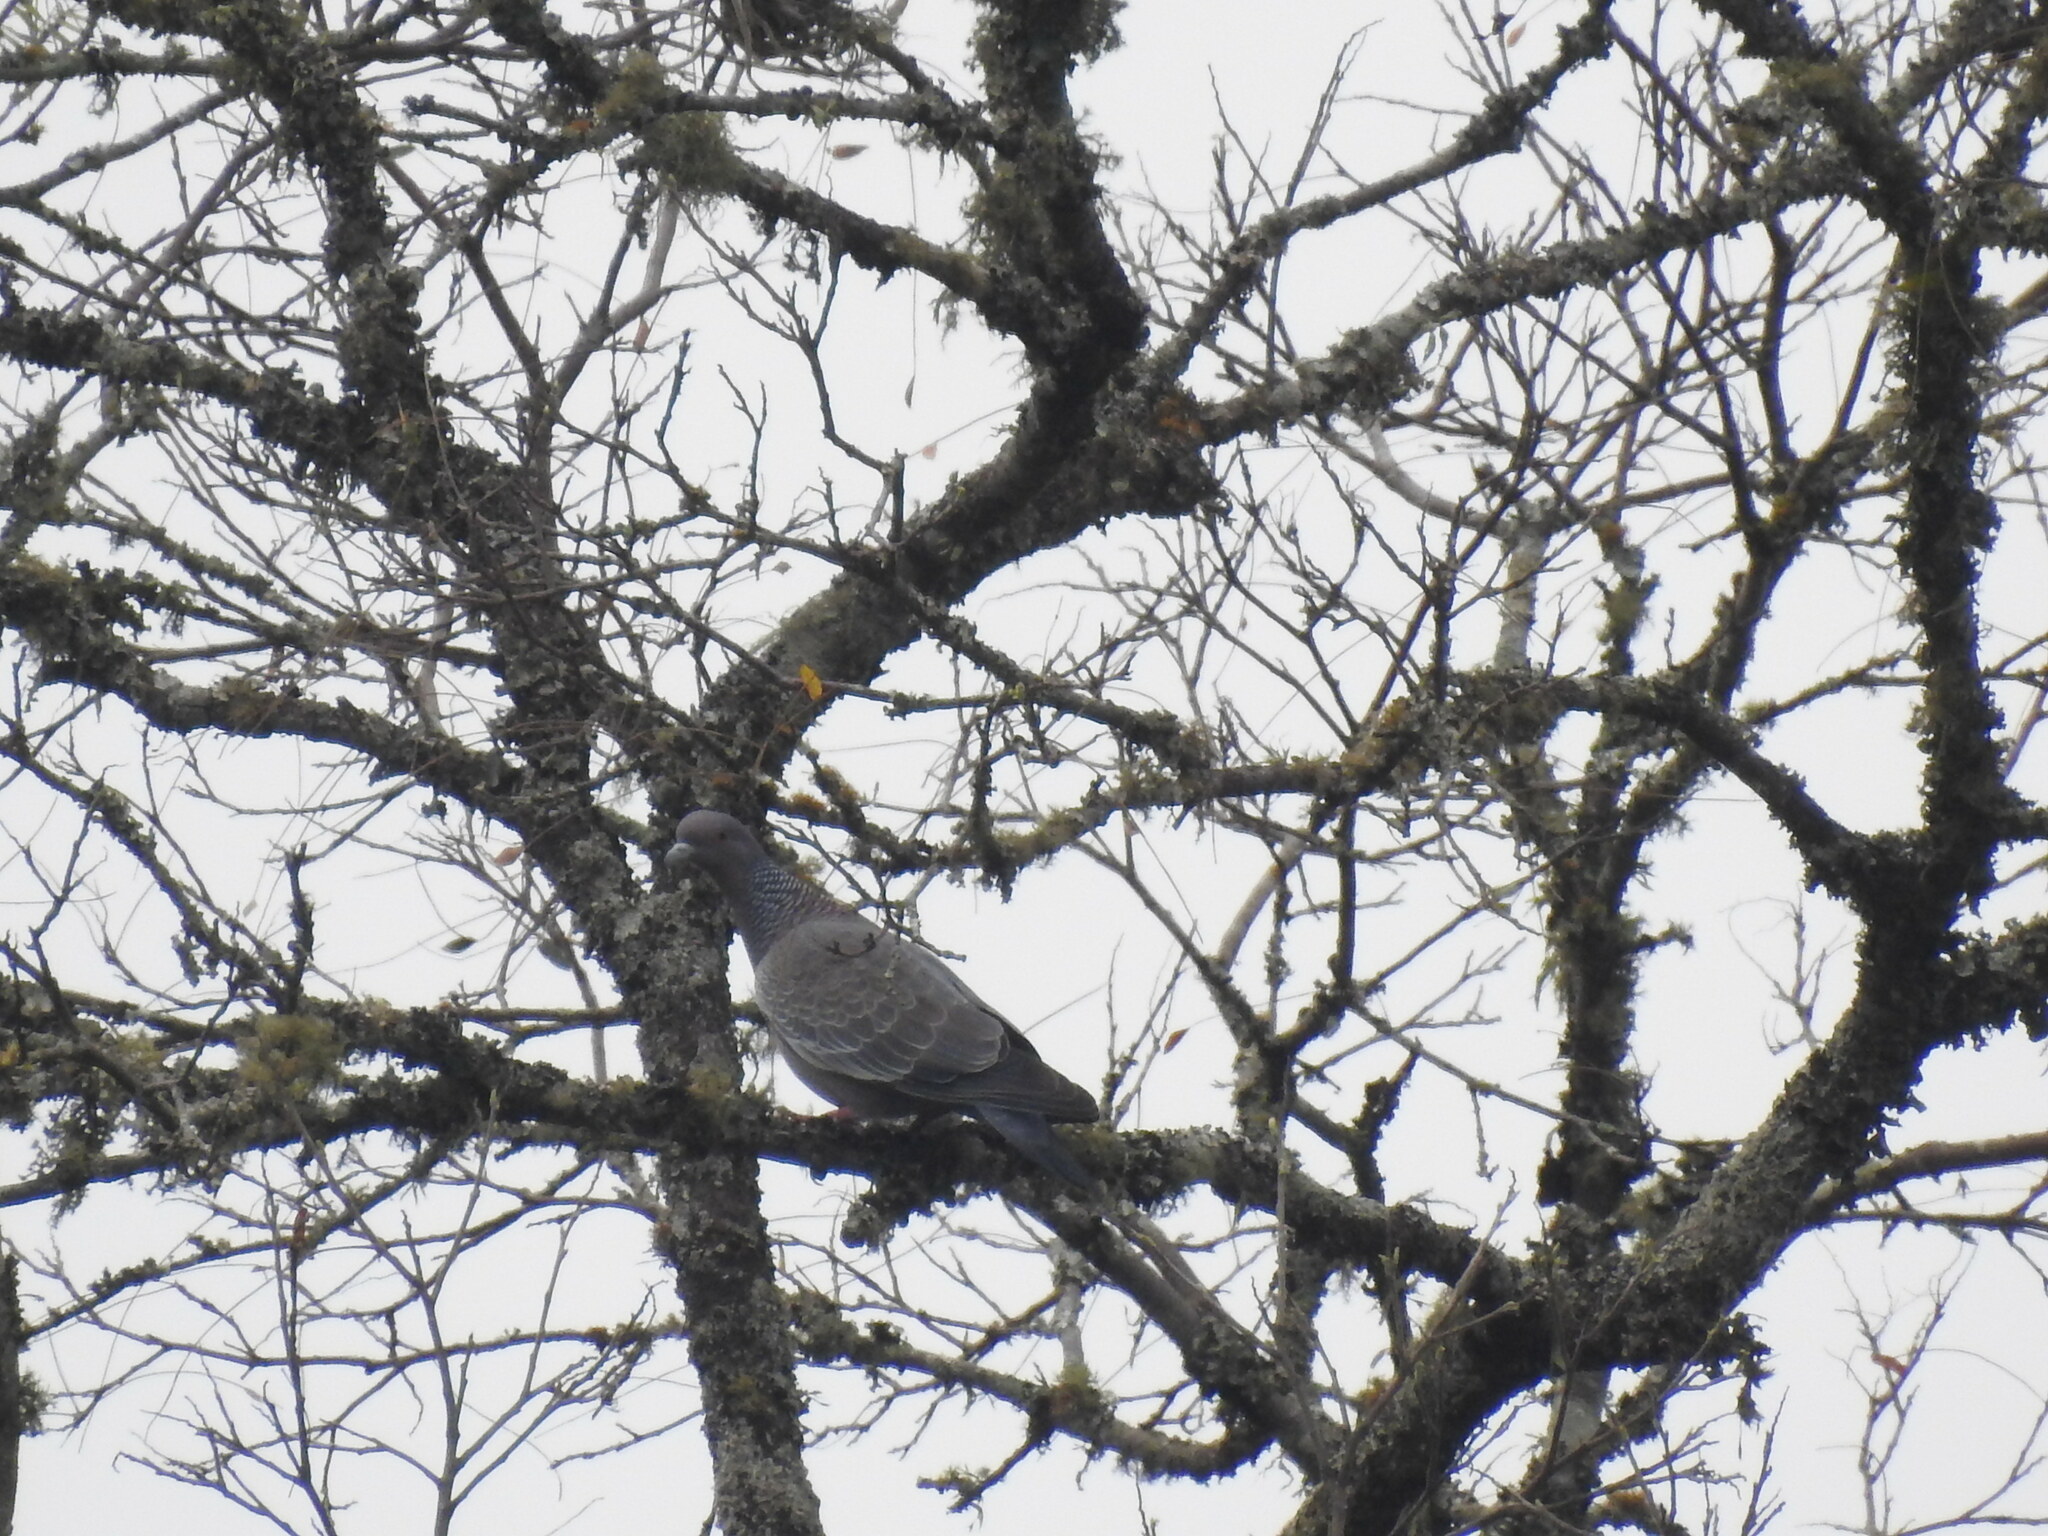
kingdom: Animalia
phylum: Chordata
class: Aves
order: Columbiformes
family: Columbidae
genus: Patagioenas
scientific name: Patagioenas picazuro
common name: Picazuro pigeon
